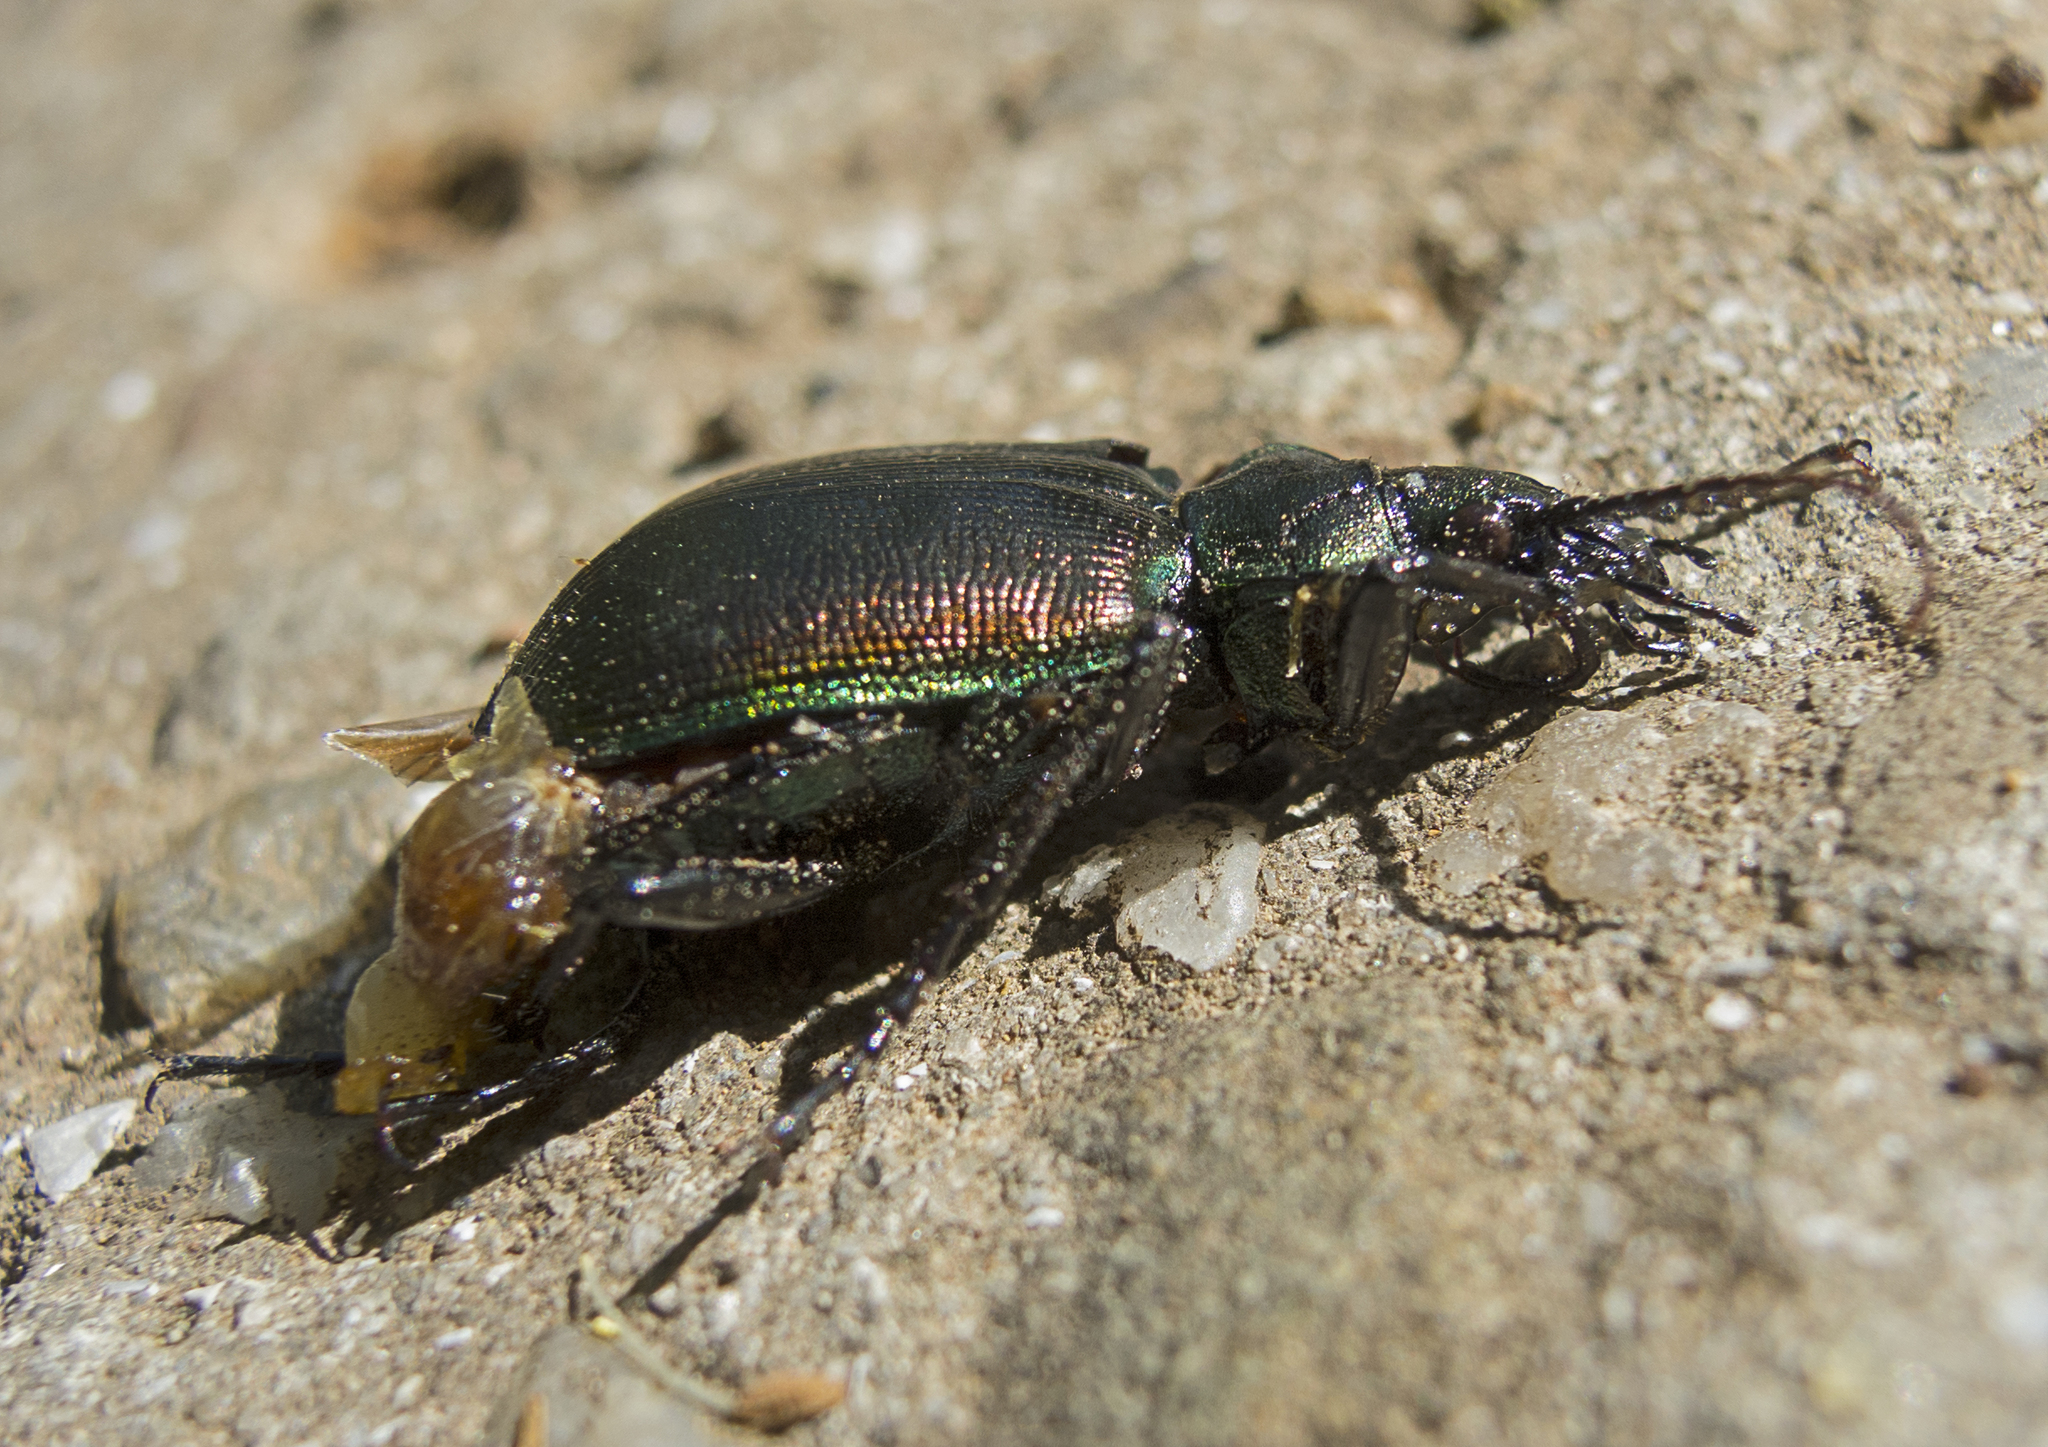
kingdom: Animalia
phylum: Arthropoda
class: Insecta
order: Coleoptera
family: Carabidae
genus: Calosoma
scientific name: Calosoma inquisitor
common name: Caterpillar-hunter
